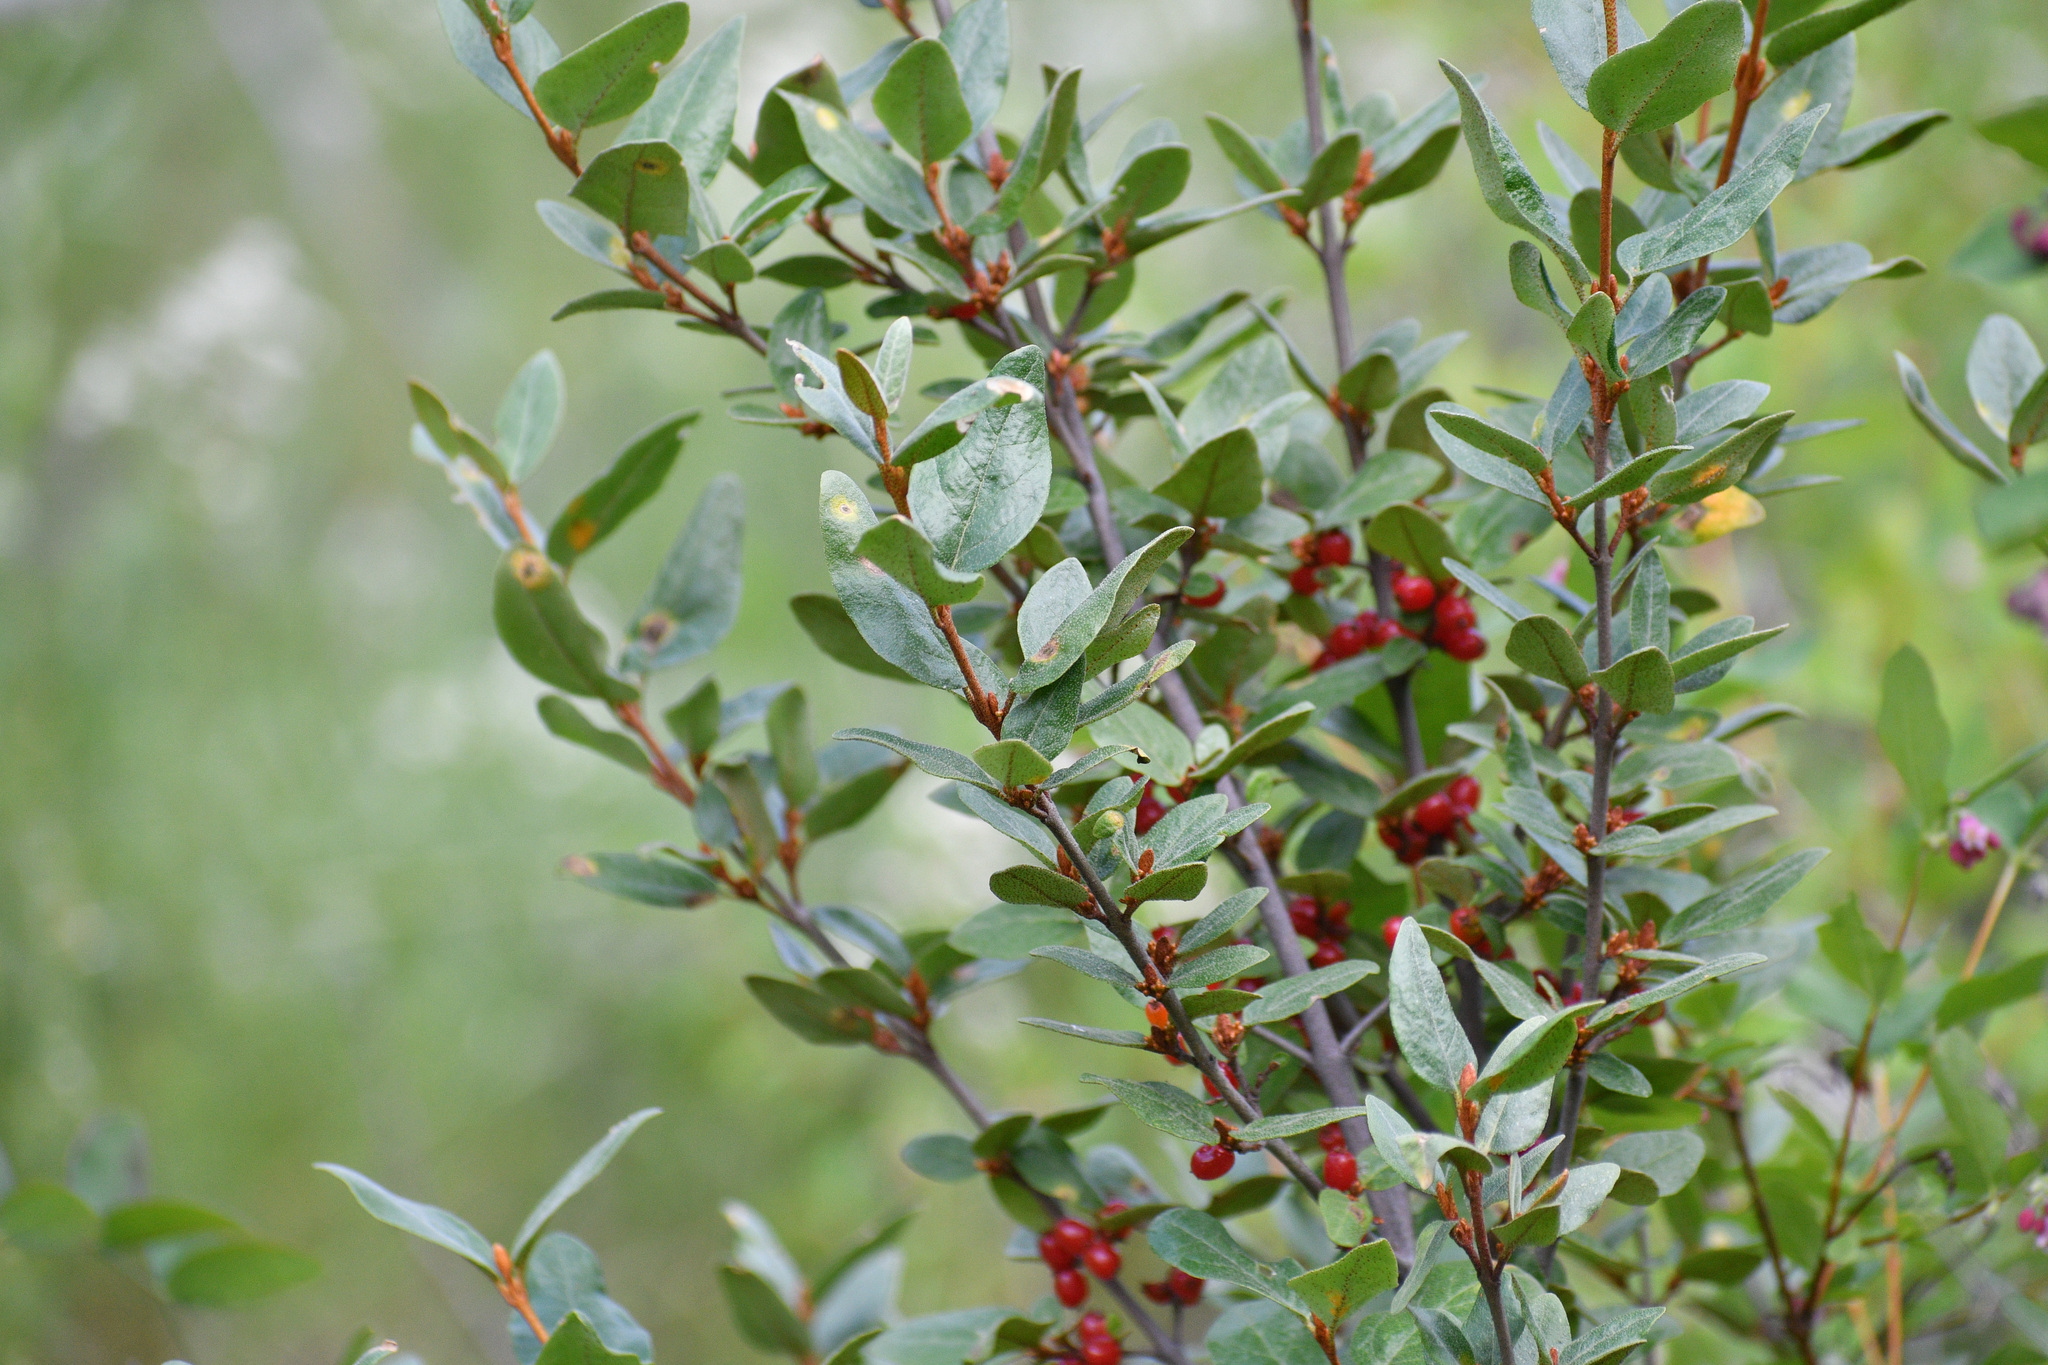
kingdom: Plantae
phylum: Tracheophyta
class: Magnoliopsida
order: Rosales
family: Elaeagnaceae
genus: Shepherdia
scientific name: Shepherdia canadensis
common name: Soapberry
